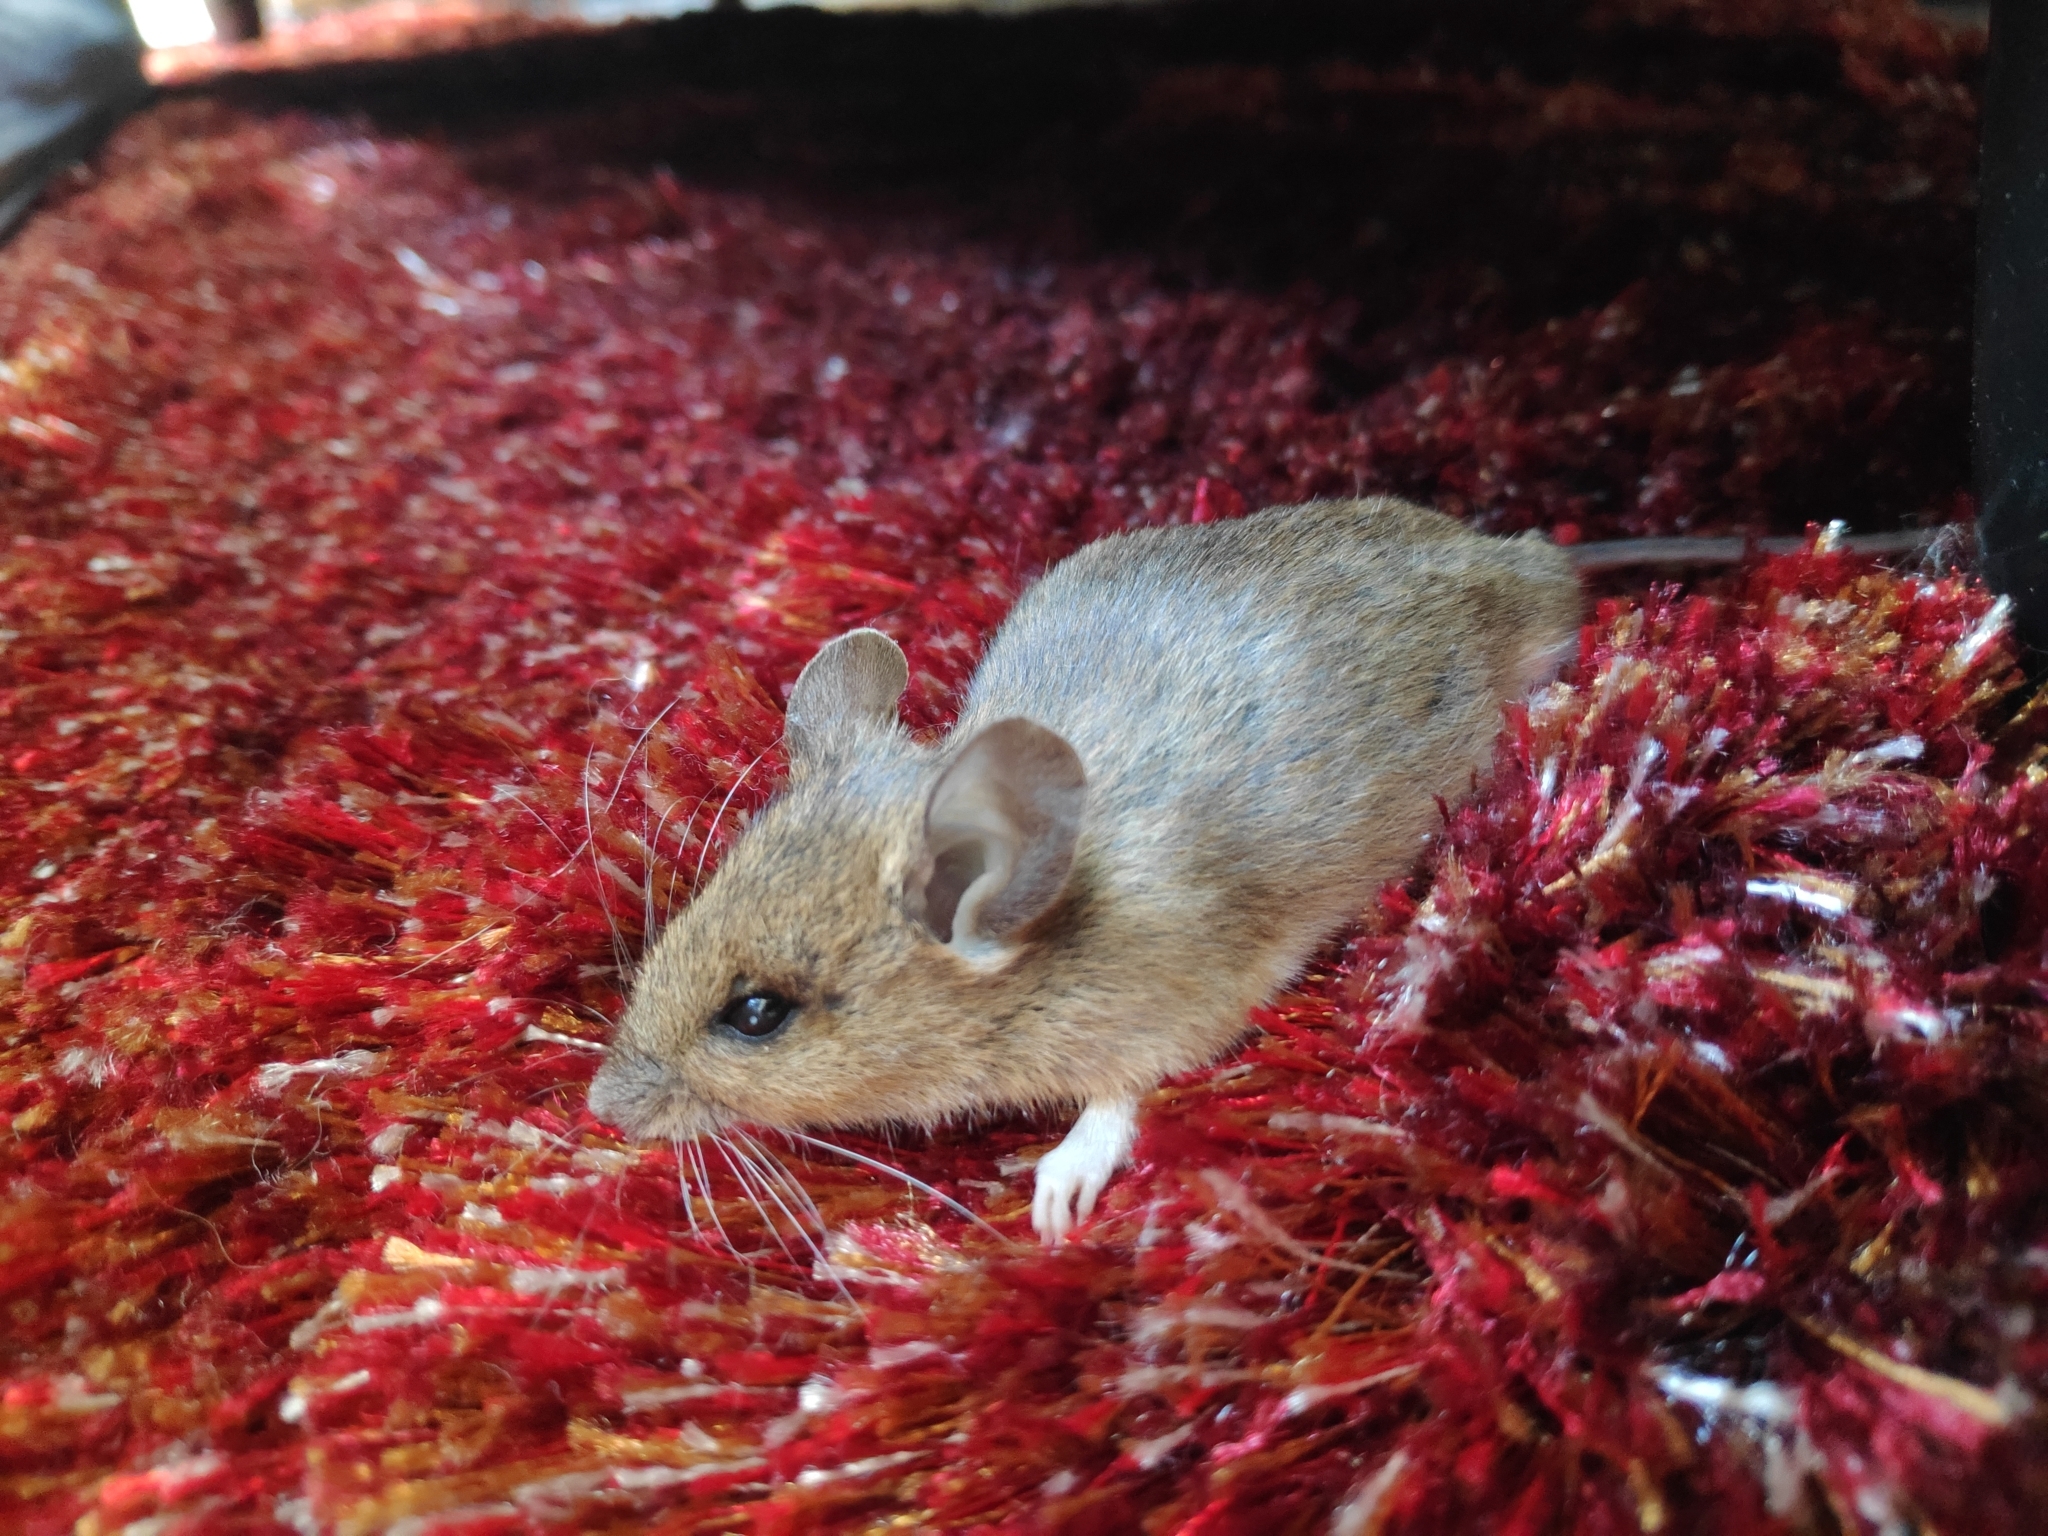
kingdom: Animalia
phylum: Chordata
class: Mammalia
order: Rodentia
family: Muridae
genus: Apodemus
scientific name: Apodemus sylvaticus
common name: Wood mouse
